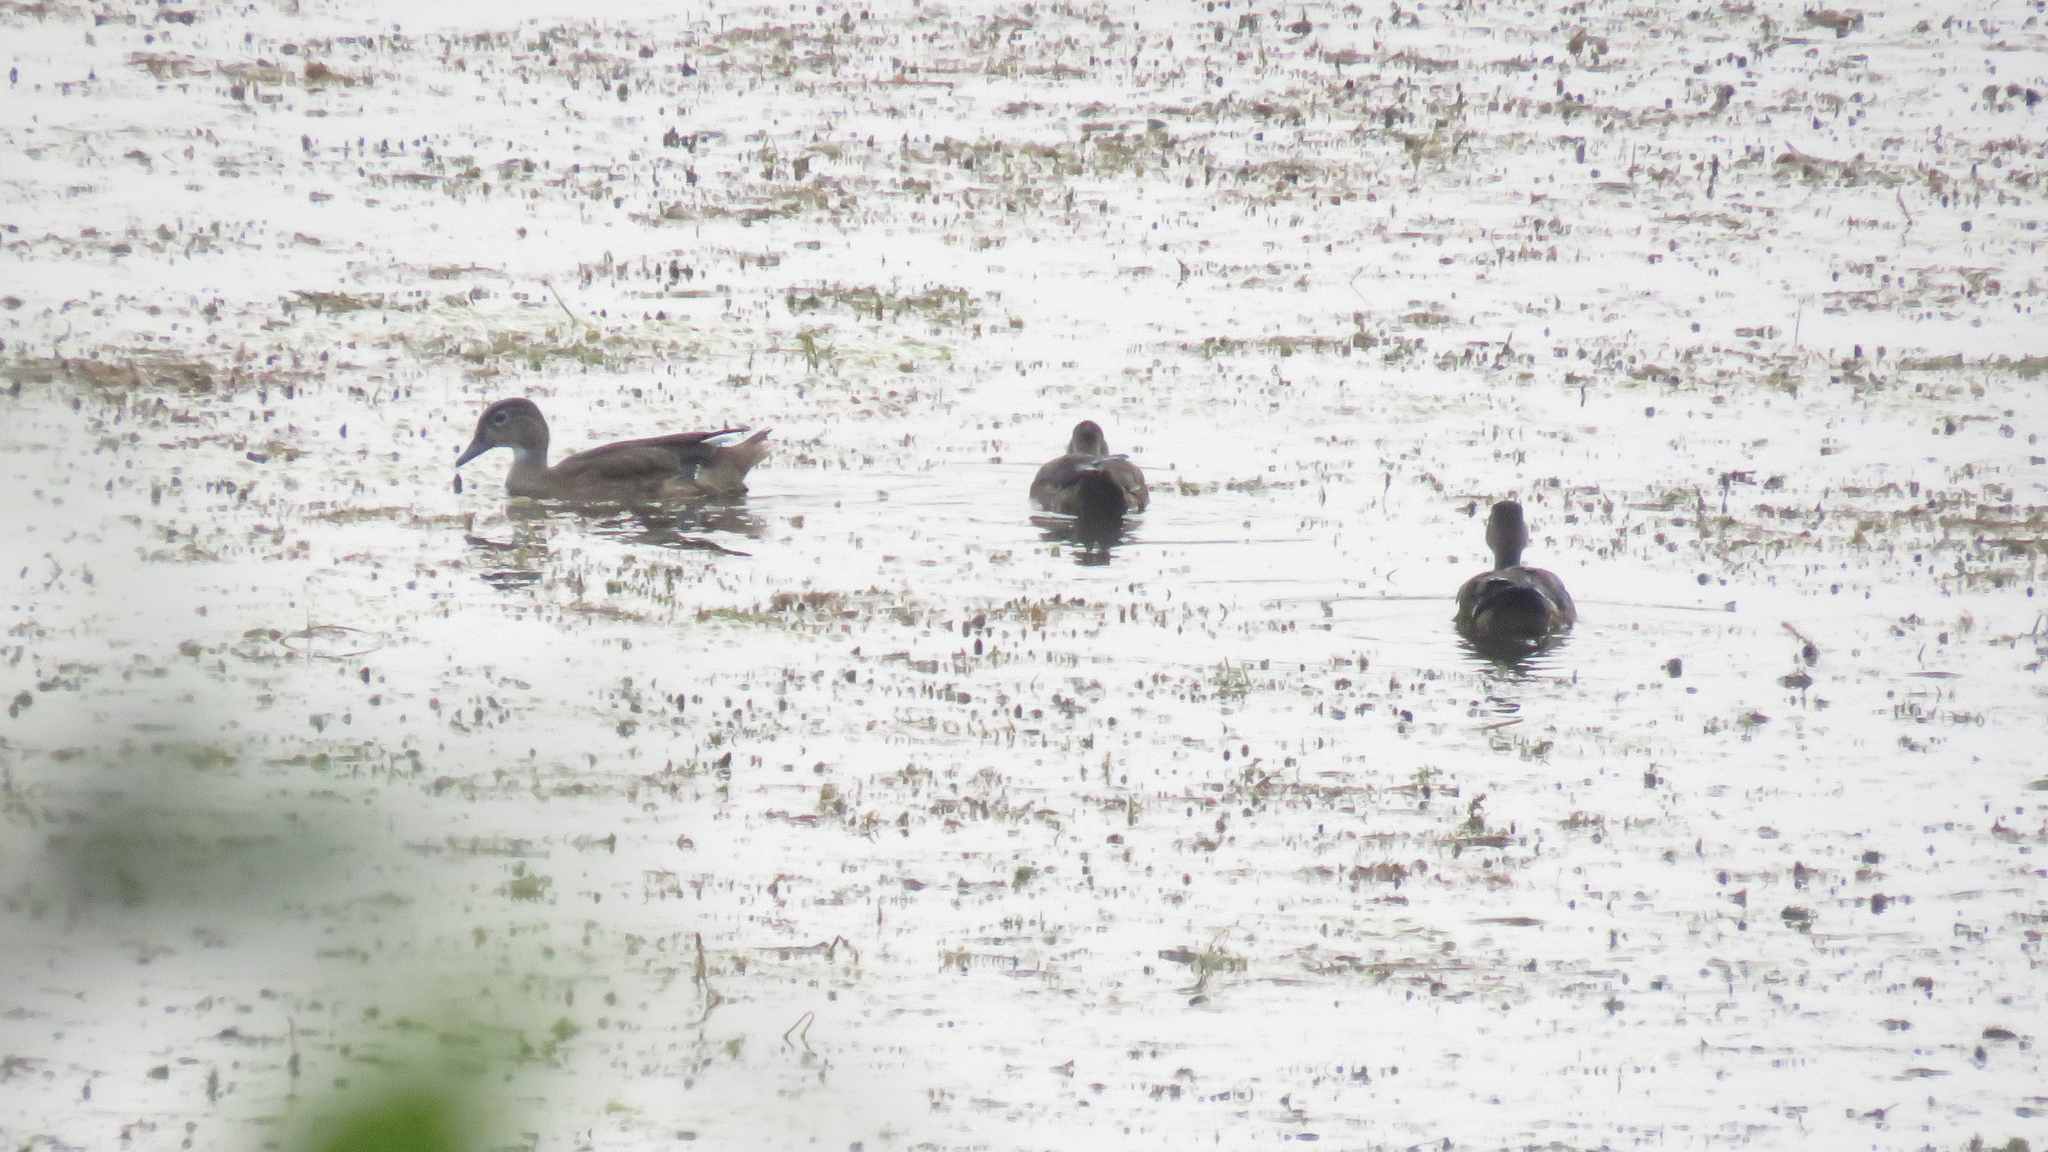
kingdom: Animalia
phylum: Chordata
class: Aves
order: Anseriformes
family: Anatidae
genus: Aix
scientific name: Aix sponsa
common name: Wood duck
